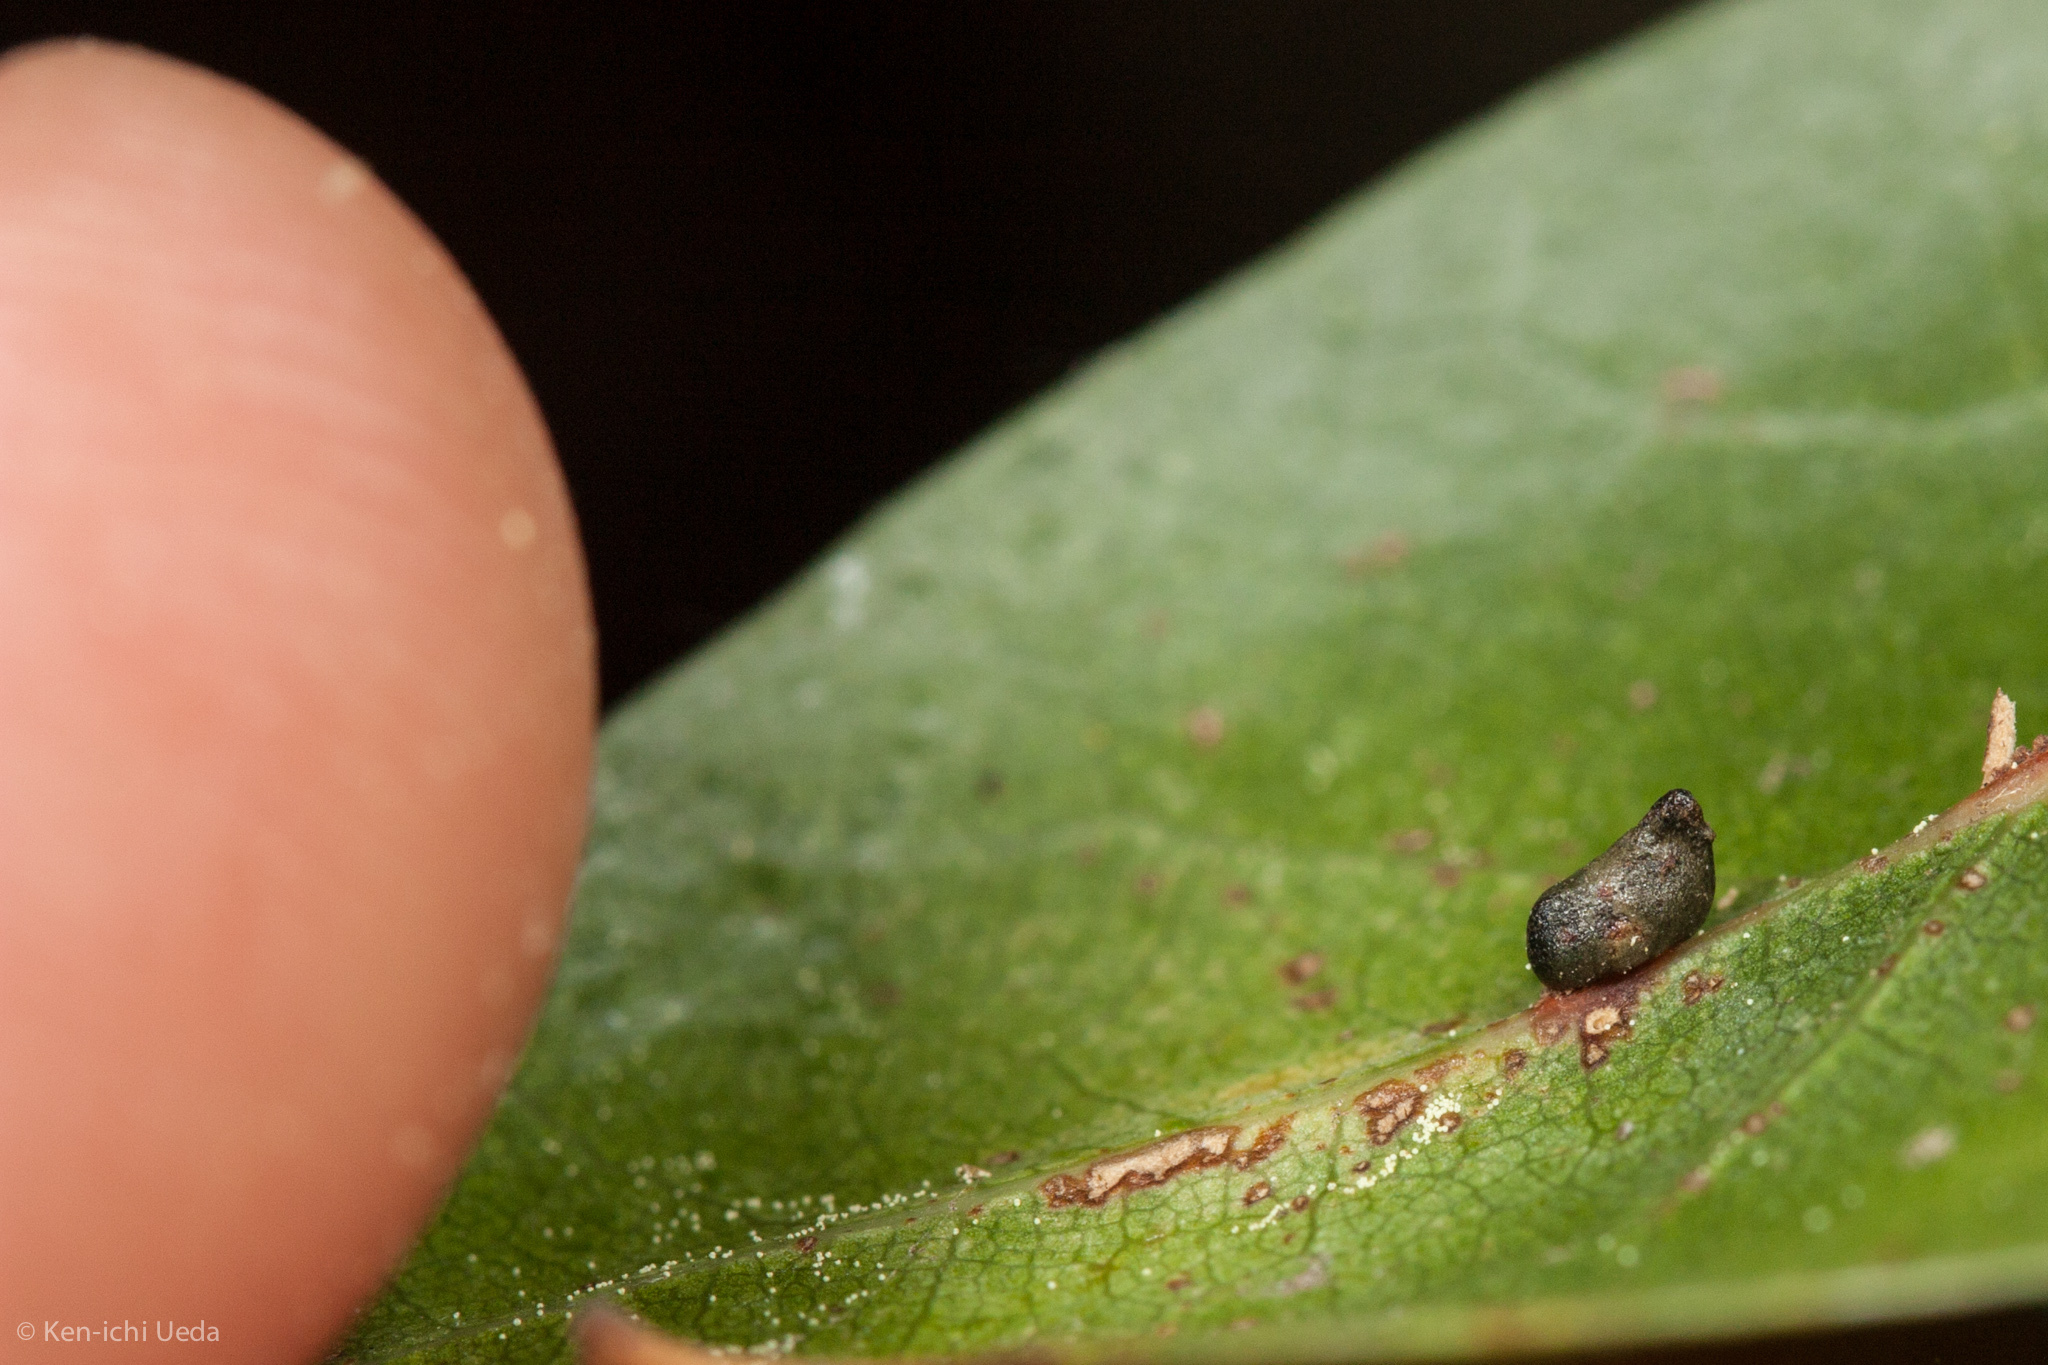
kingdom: Animalia
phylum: Arthropoda
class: Insecta
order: Hymenoptera
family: Cynipidae
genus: Dryocosmus
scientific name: Dryocosmus
